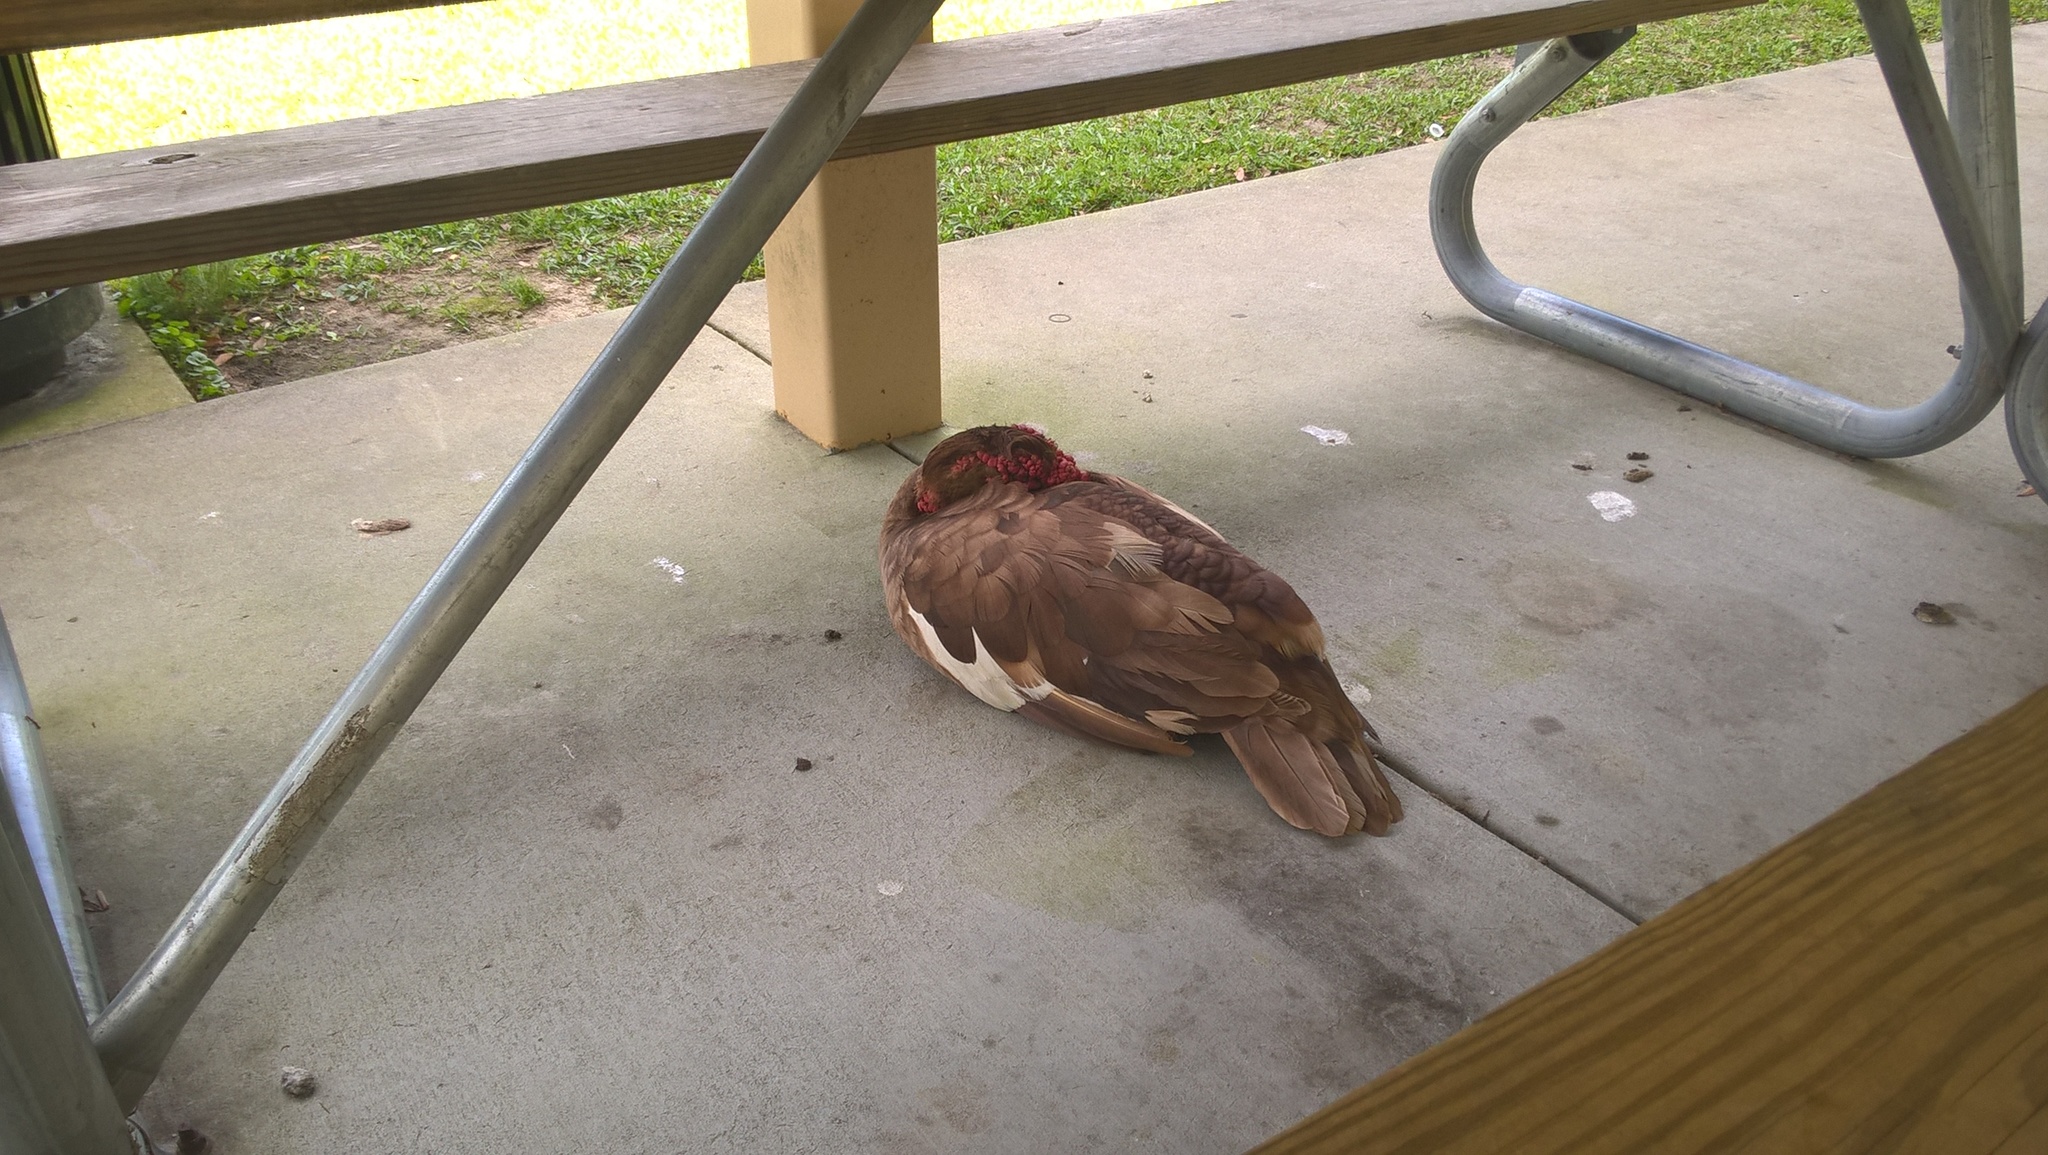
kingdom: Animalia
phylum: Chordata
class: Aves
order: Anseriformes
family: Anatidae
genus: Cairina
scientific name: Cairina moschata
